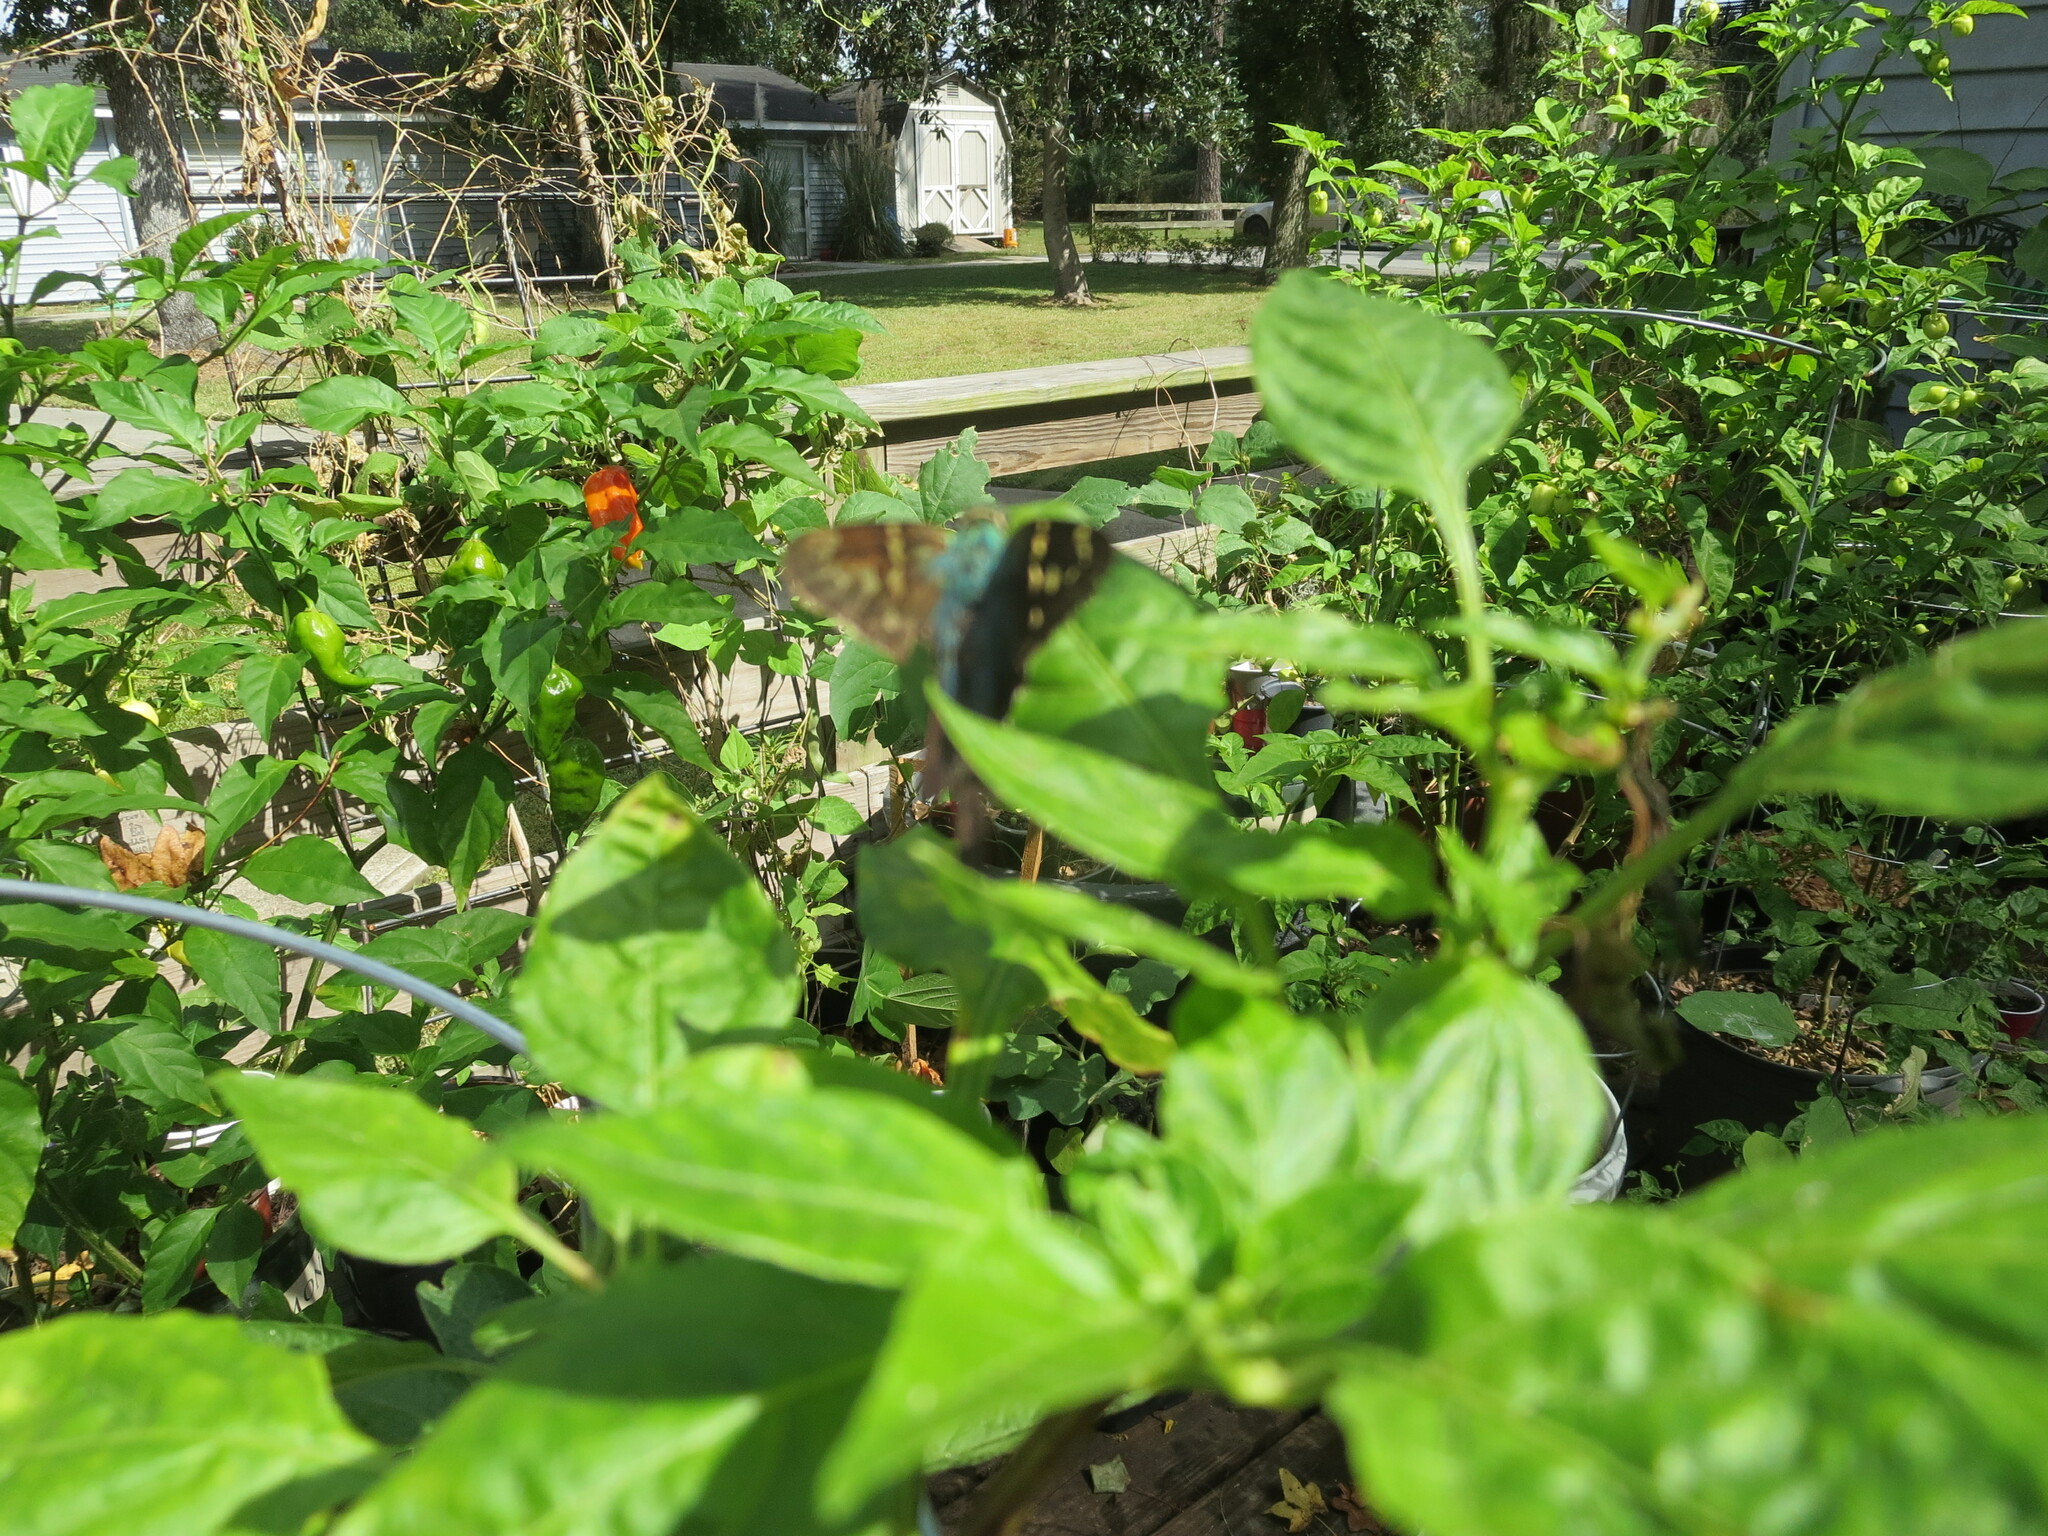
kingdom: Animalia
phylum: Arthropoda
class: Insecta
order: Lepidoptera
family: Hesperiidae
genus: Urbanus
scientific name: Urbanus proteus
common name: Long-tailed skipper
